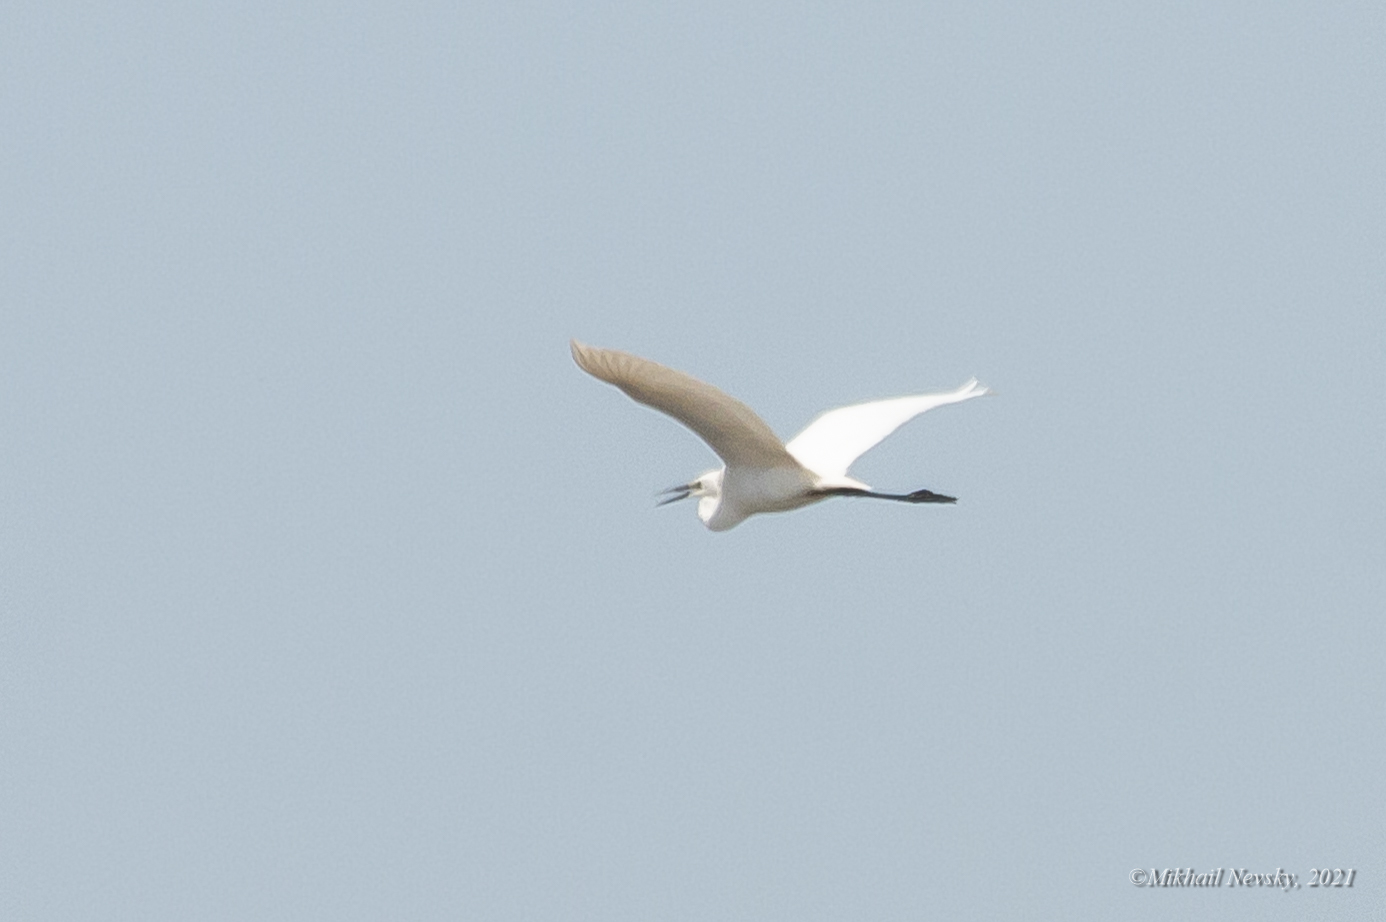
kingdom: Animalia
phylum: Chordata
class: Aves
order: Pelecaniformes
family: Ardeidae
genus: Ardea
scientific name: Ardea modesta
